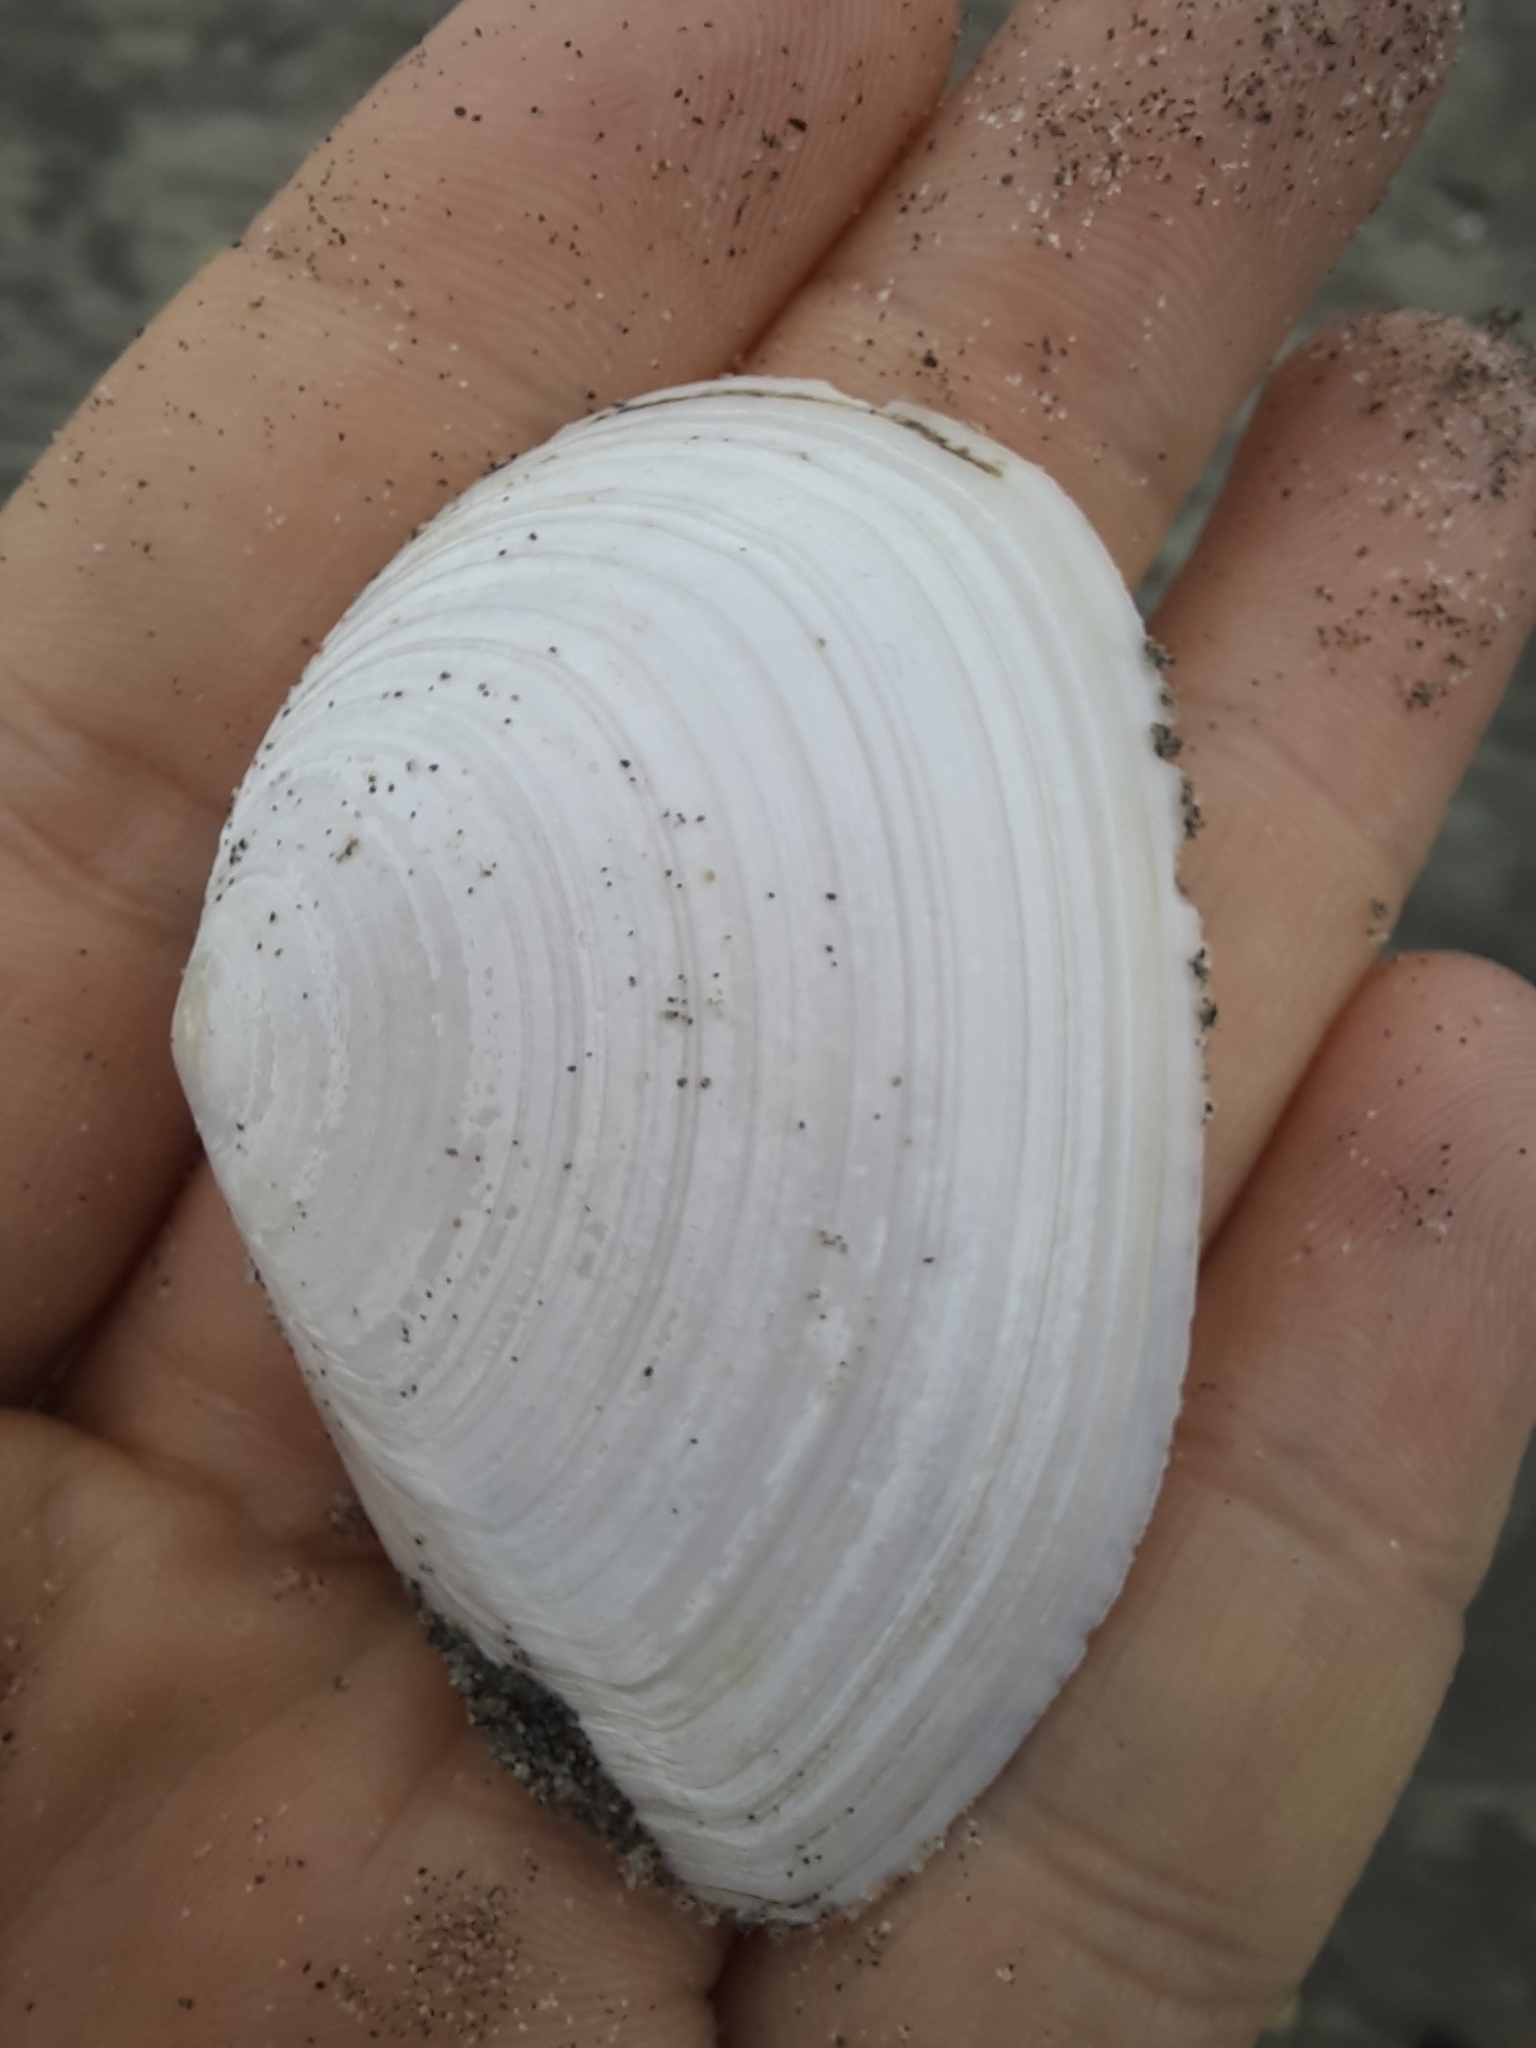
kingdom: Animalia
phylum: Mollusca
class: Bivalvia
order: Cardiida
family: Tellinidae
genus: Bartschicoma
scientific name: Bartschicoma gaimardi
